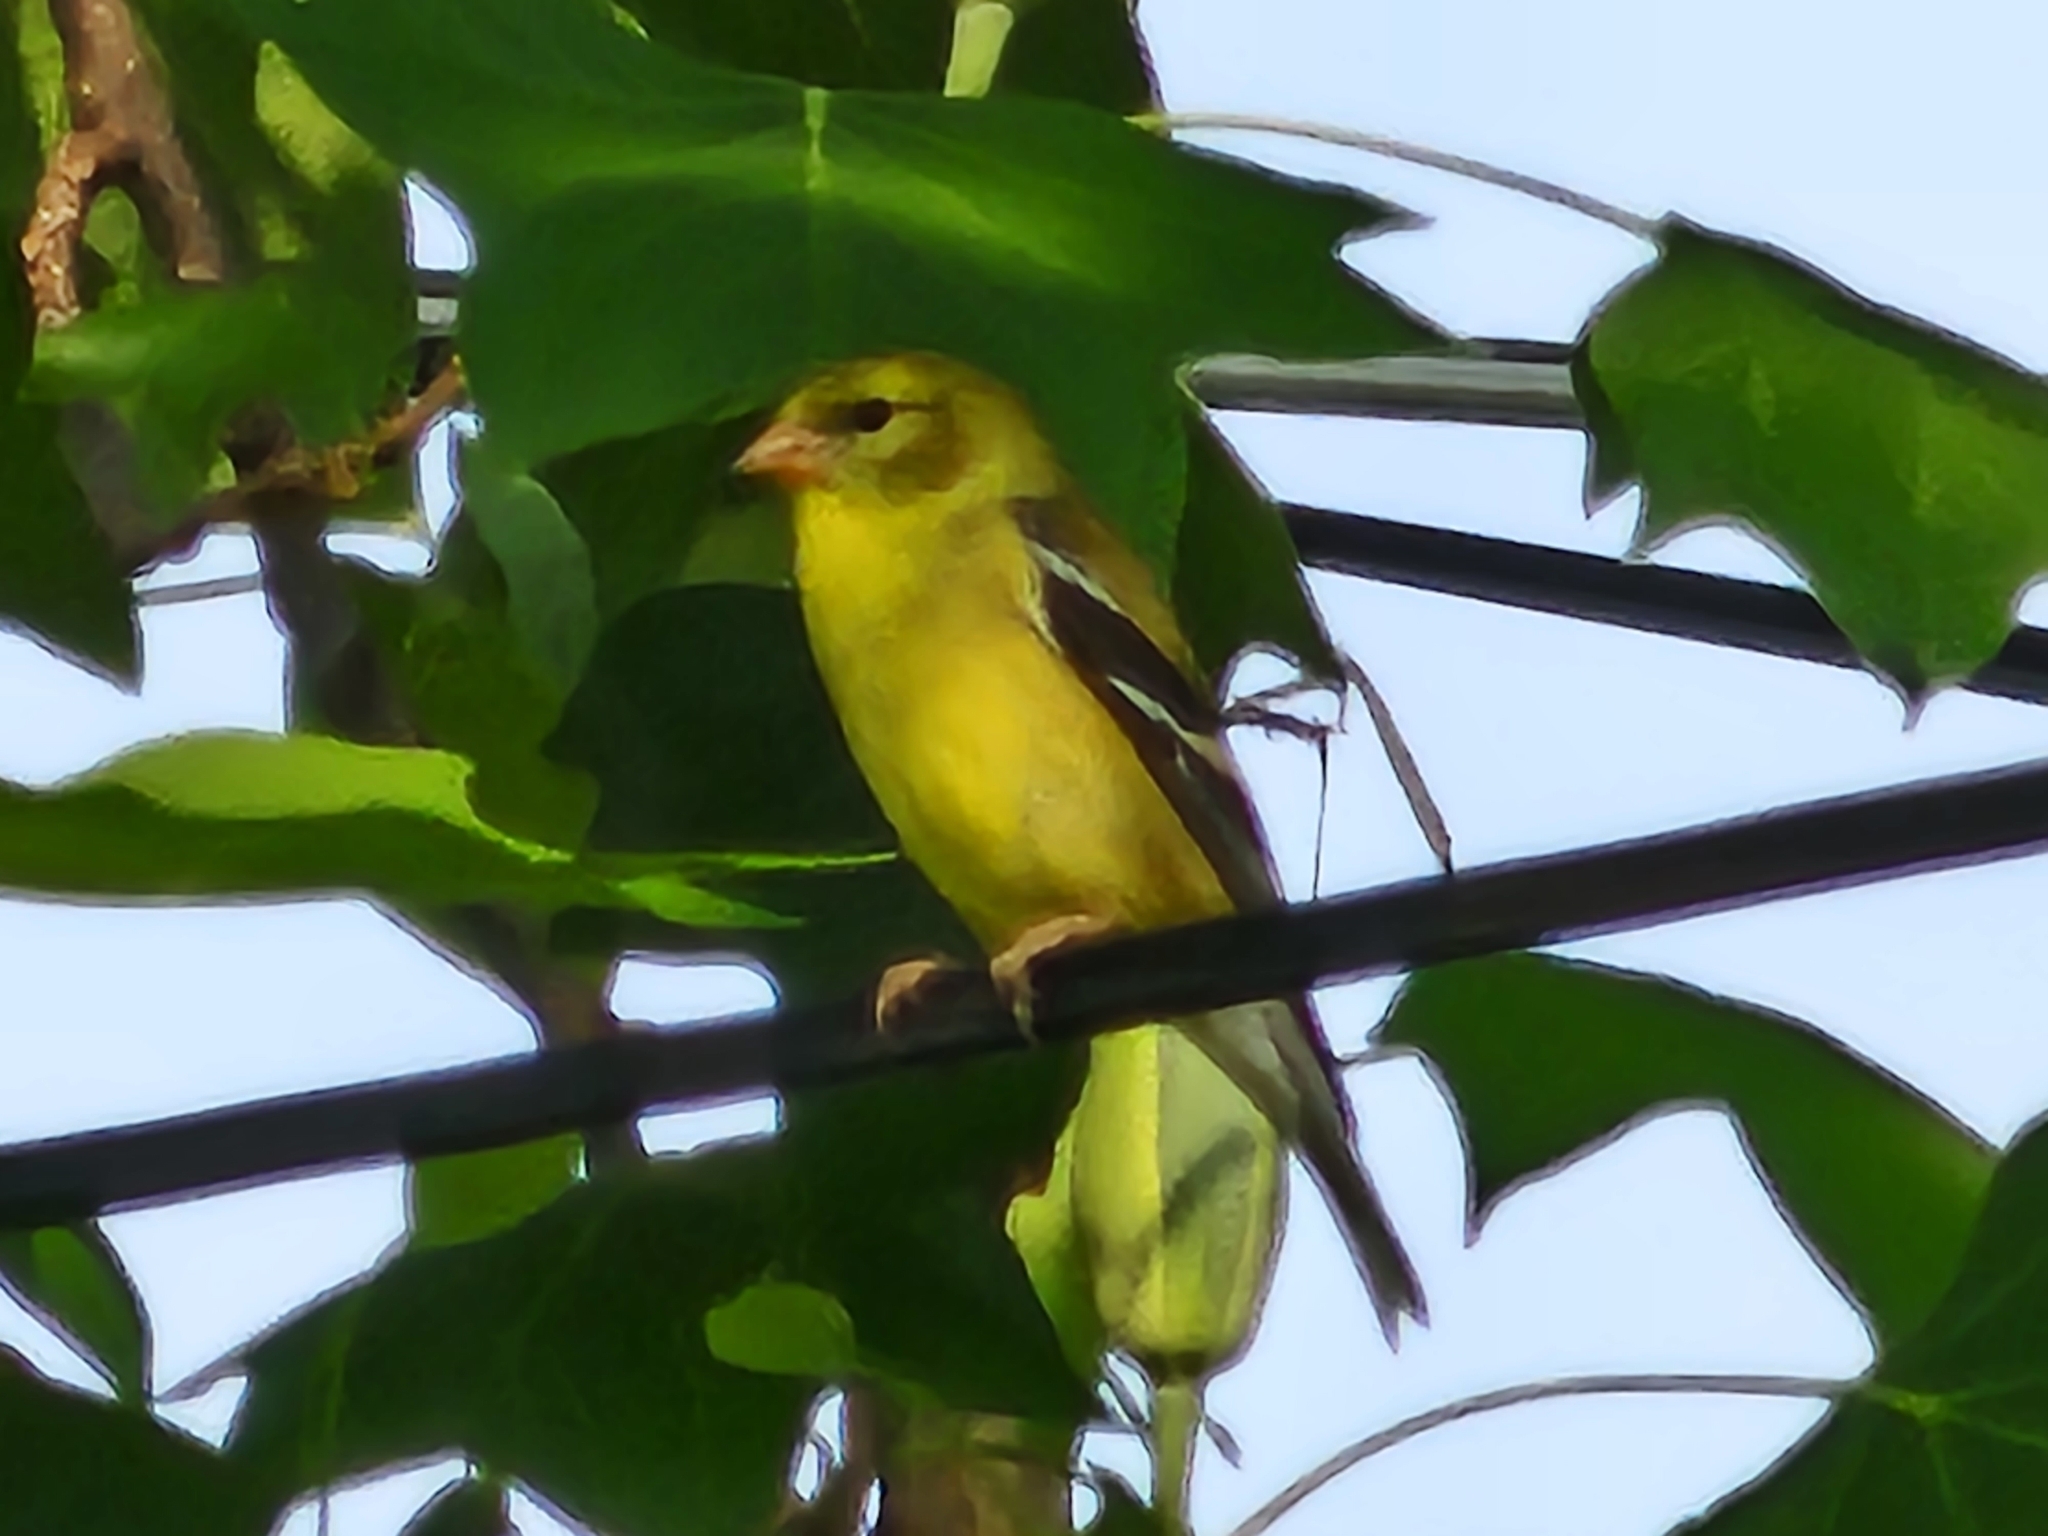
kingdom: Animalia
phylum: Chordata
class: Aves
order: Passeriformes
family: Fringillidae
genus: Spinus
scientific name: Spinus tristis
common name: American goldfinch
